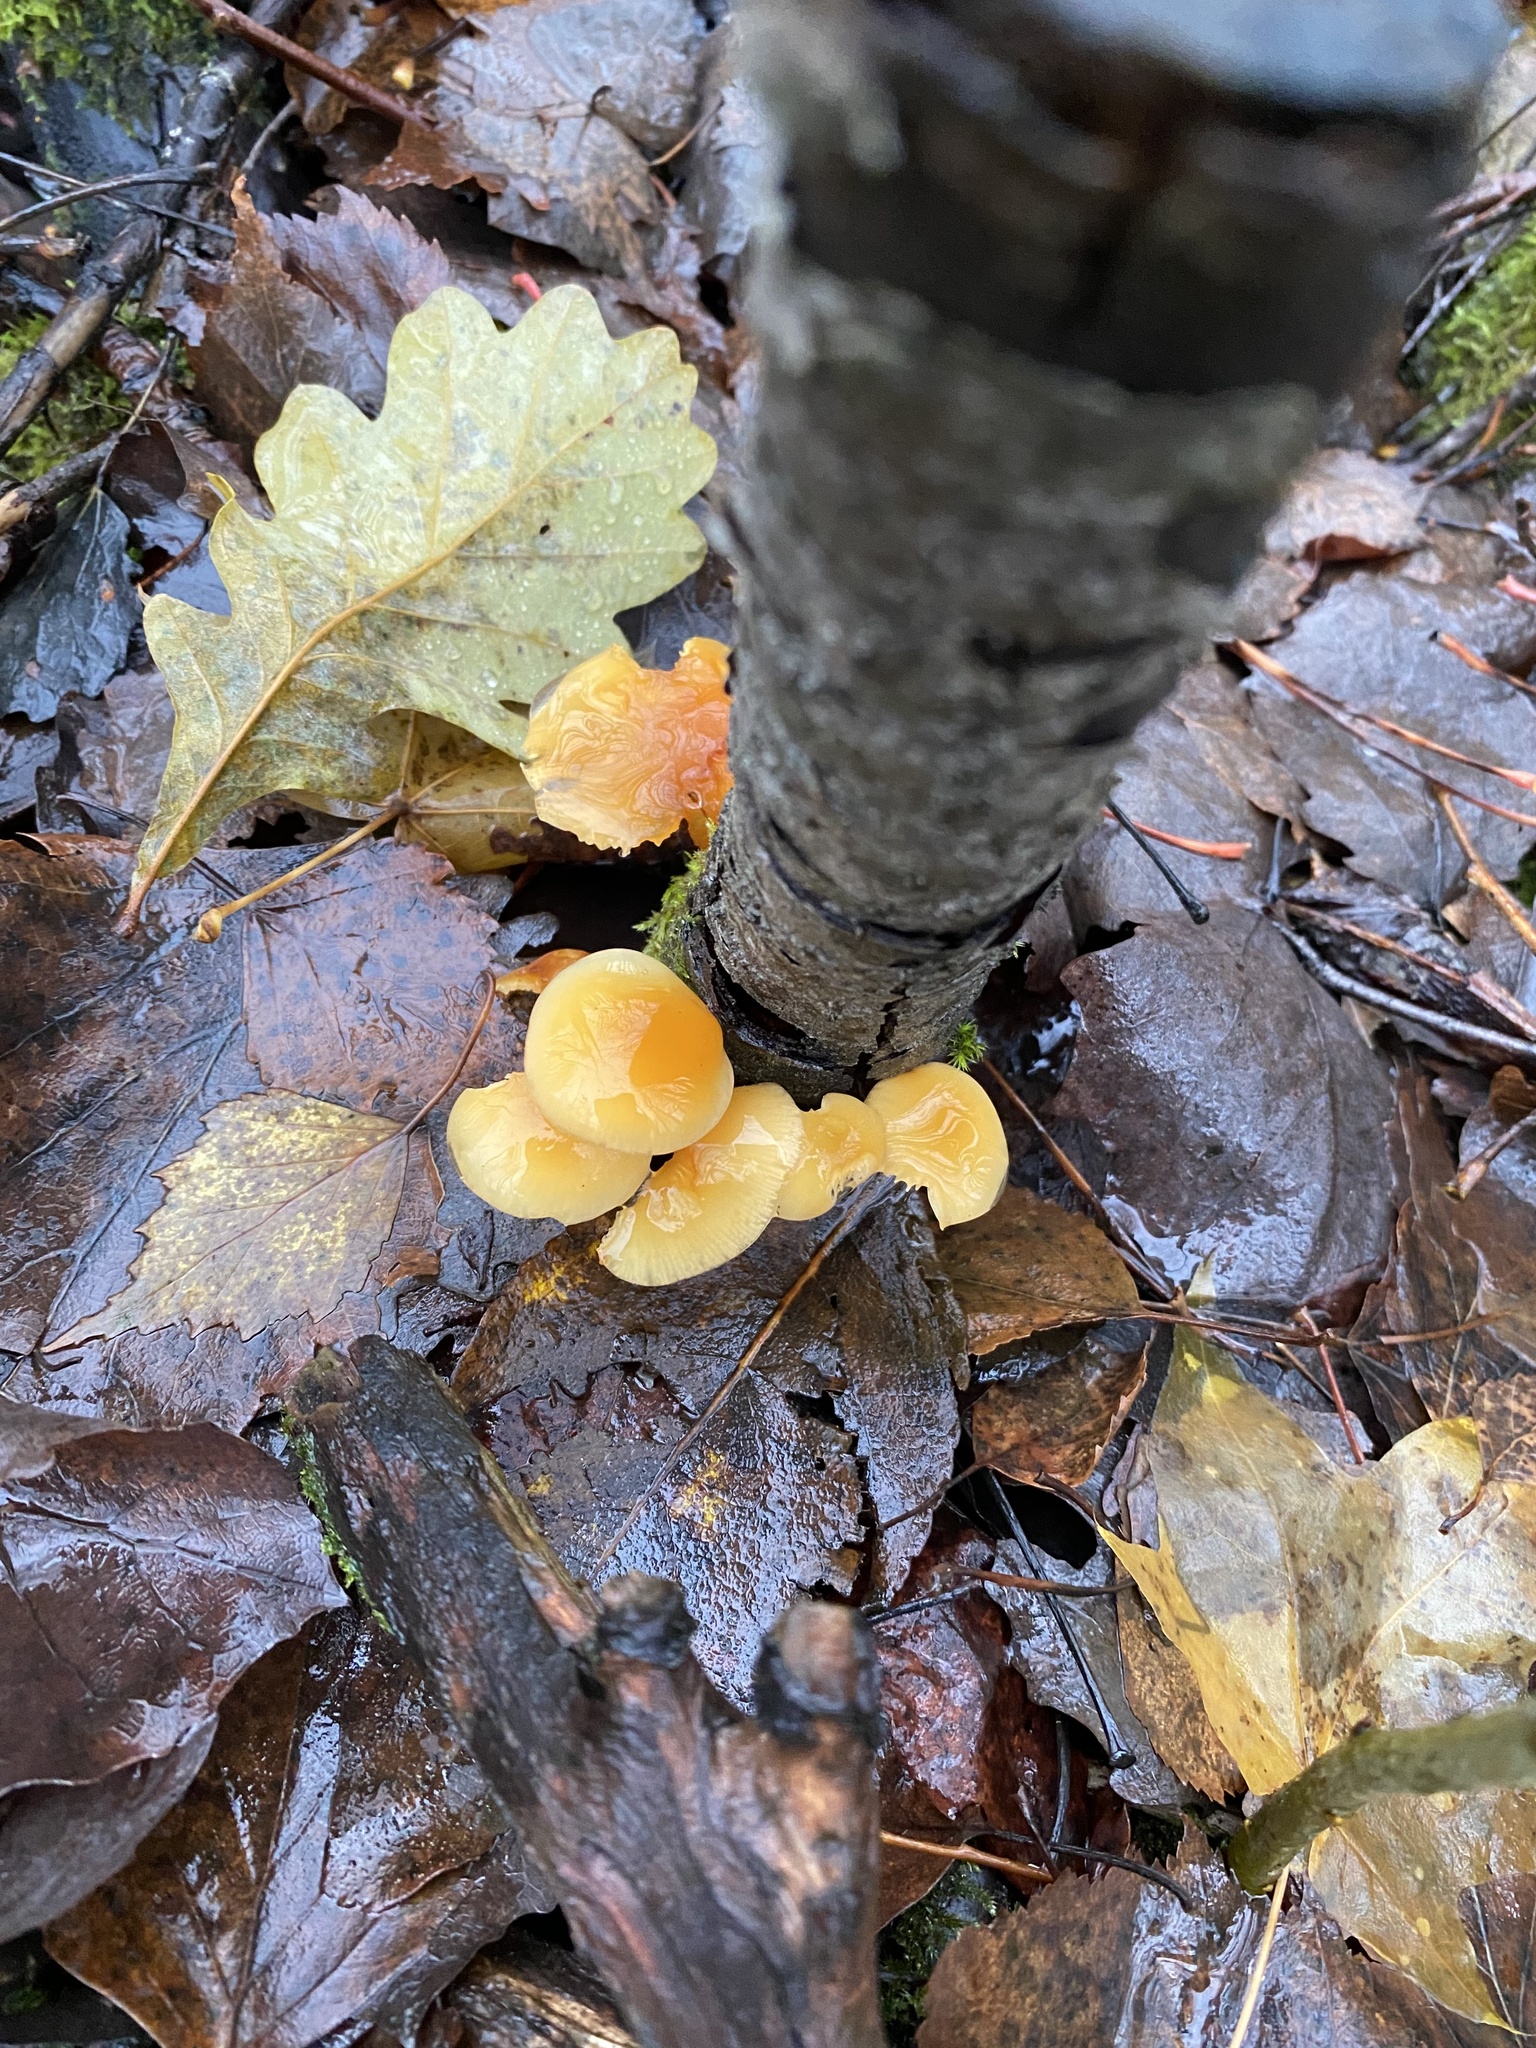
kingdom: Fungi
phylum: Basidiomycota
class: Agaricomycetes
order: Agaricales
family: Physalacriaceae
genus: Flammulina
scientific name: Flammulina
